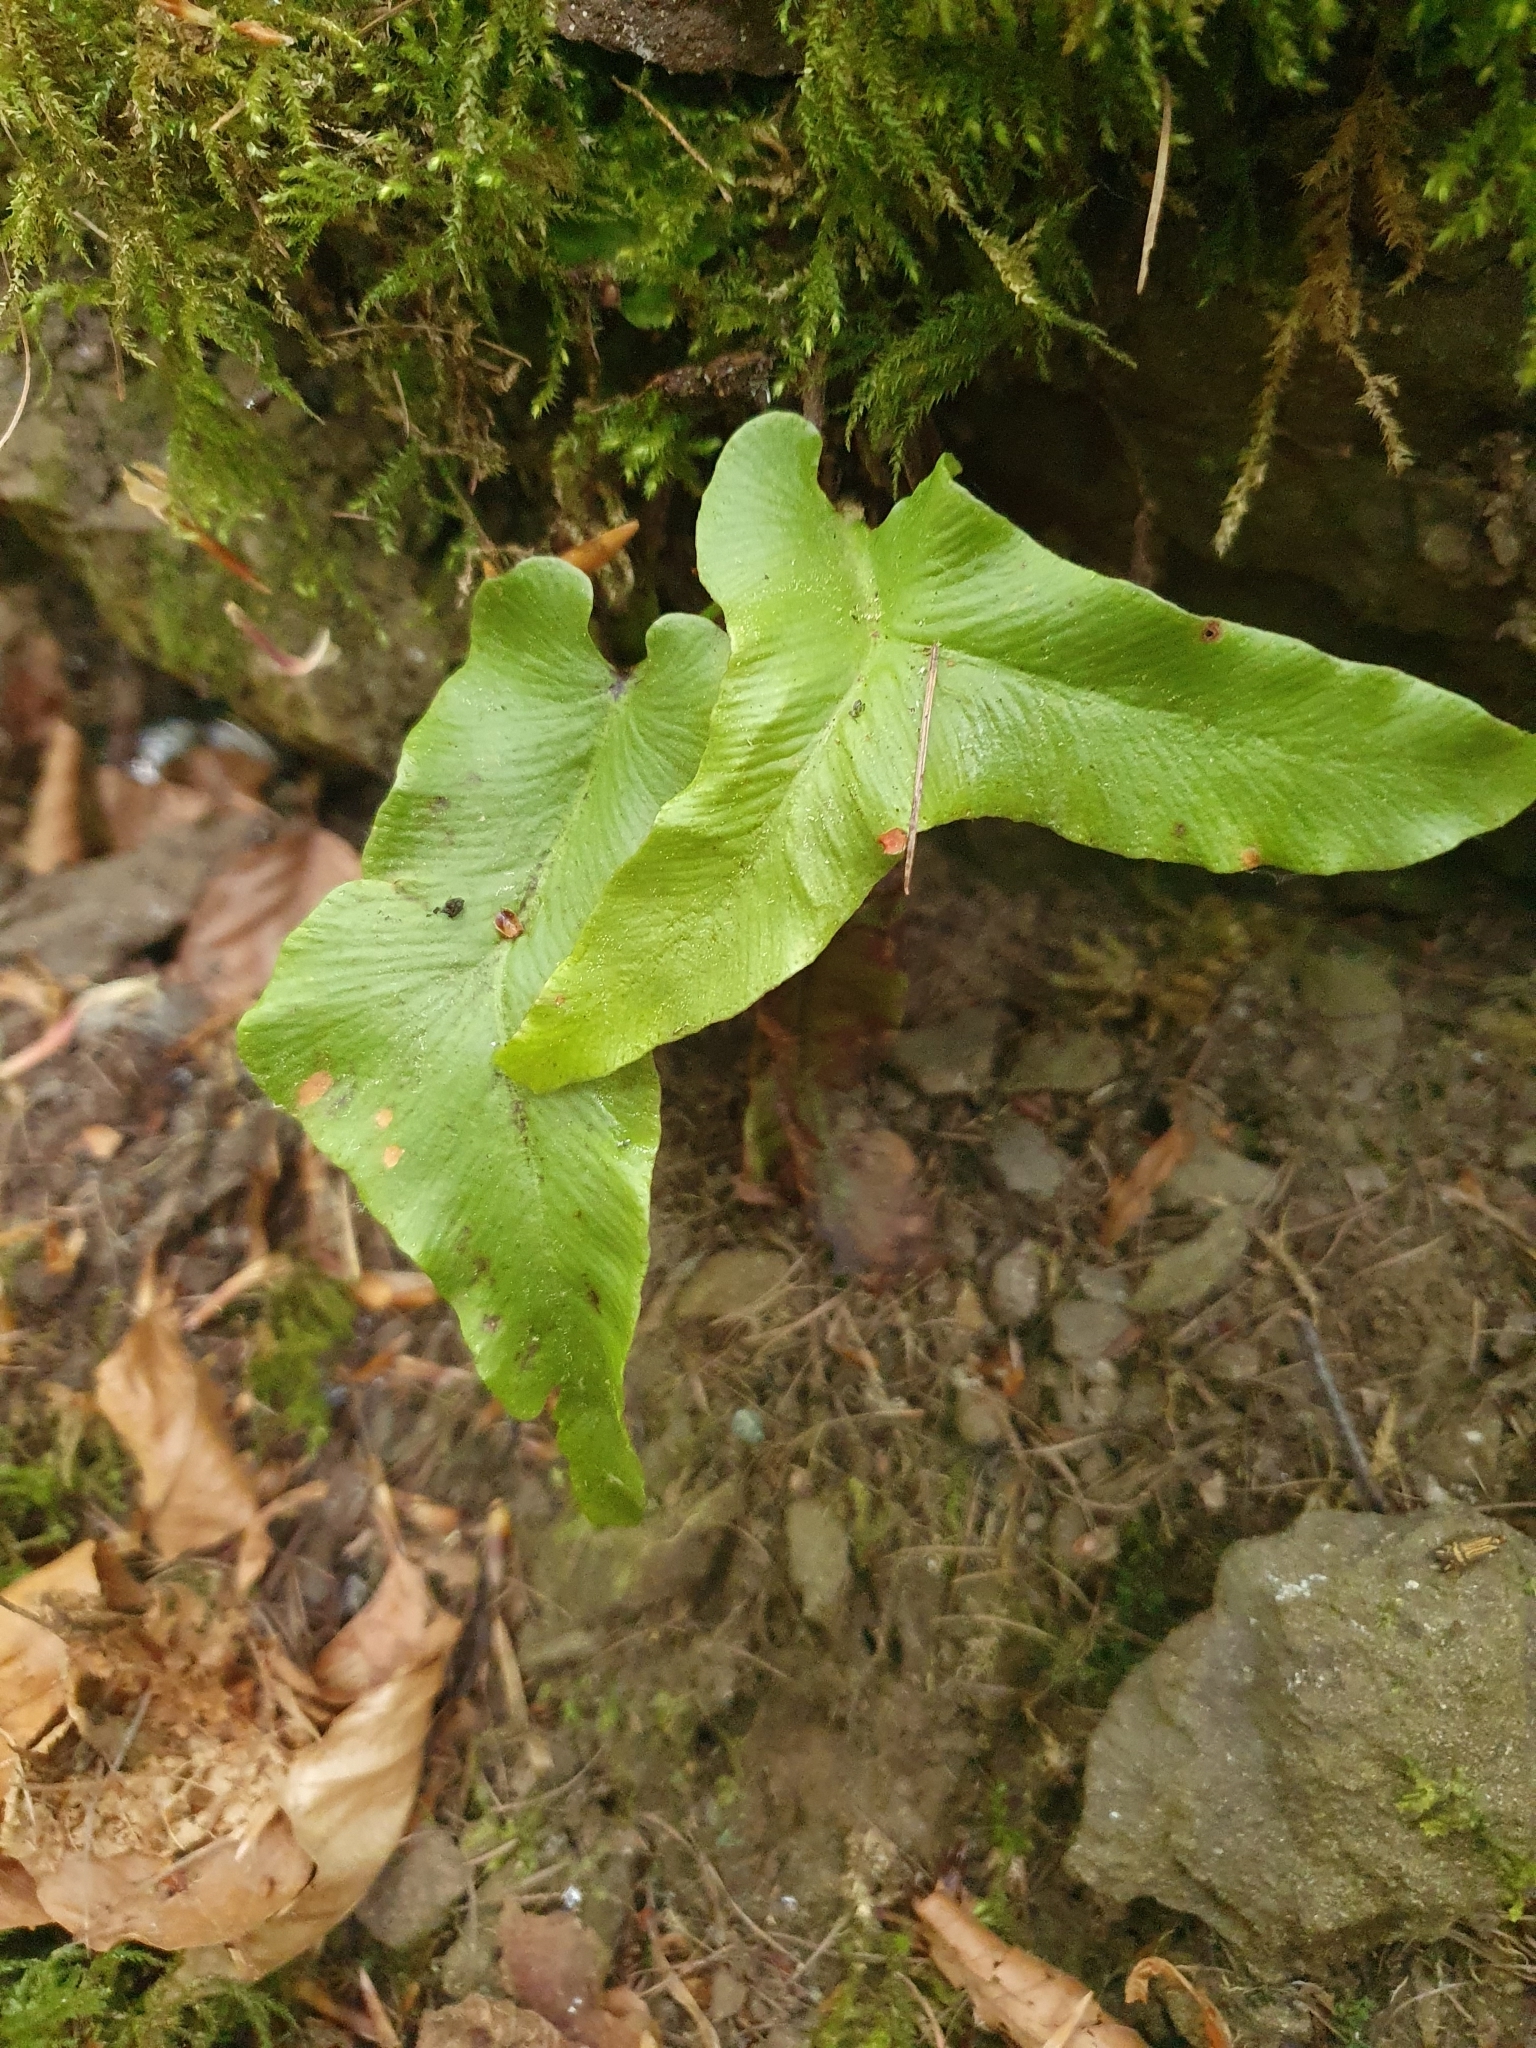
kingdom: Plantae
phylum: Tracheophyta
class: Polypodiopsida
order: Polypodiales
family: Aspleniaceae
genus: Asplenium
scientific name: Asplenium scolopendrium
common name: Hart's-tongue fern
